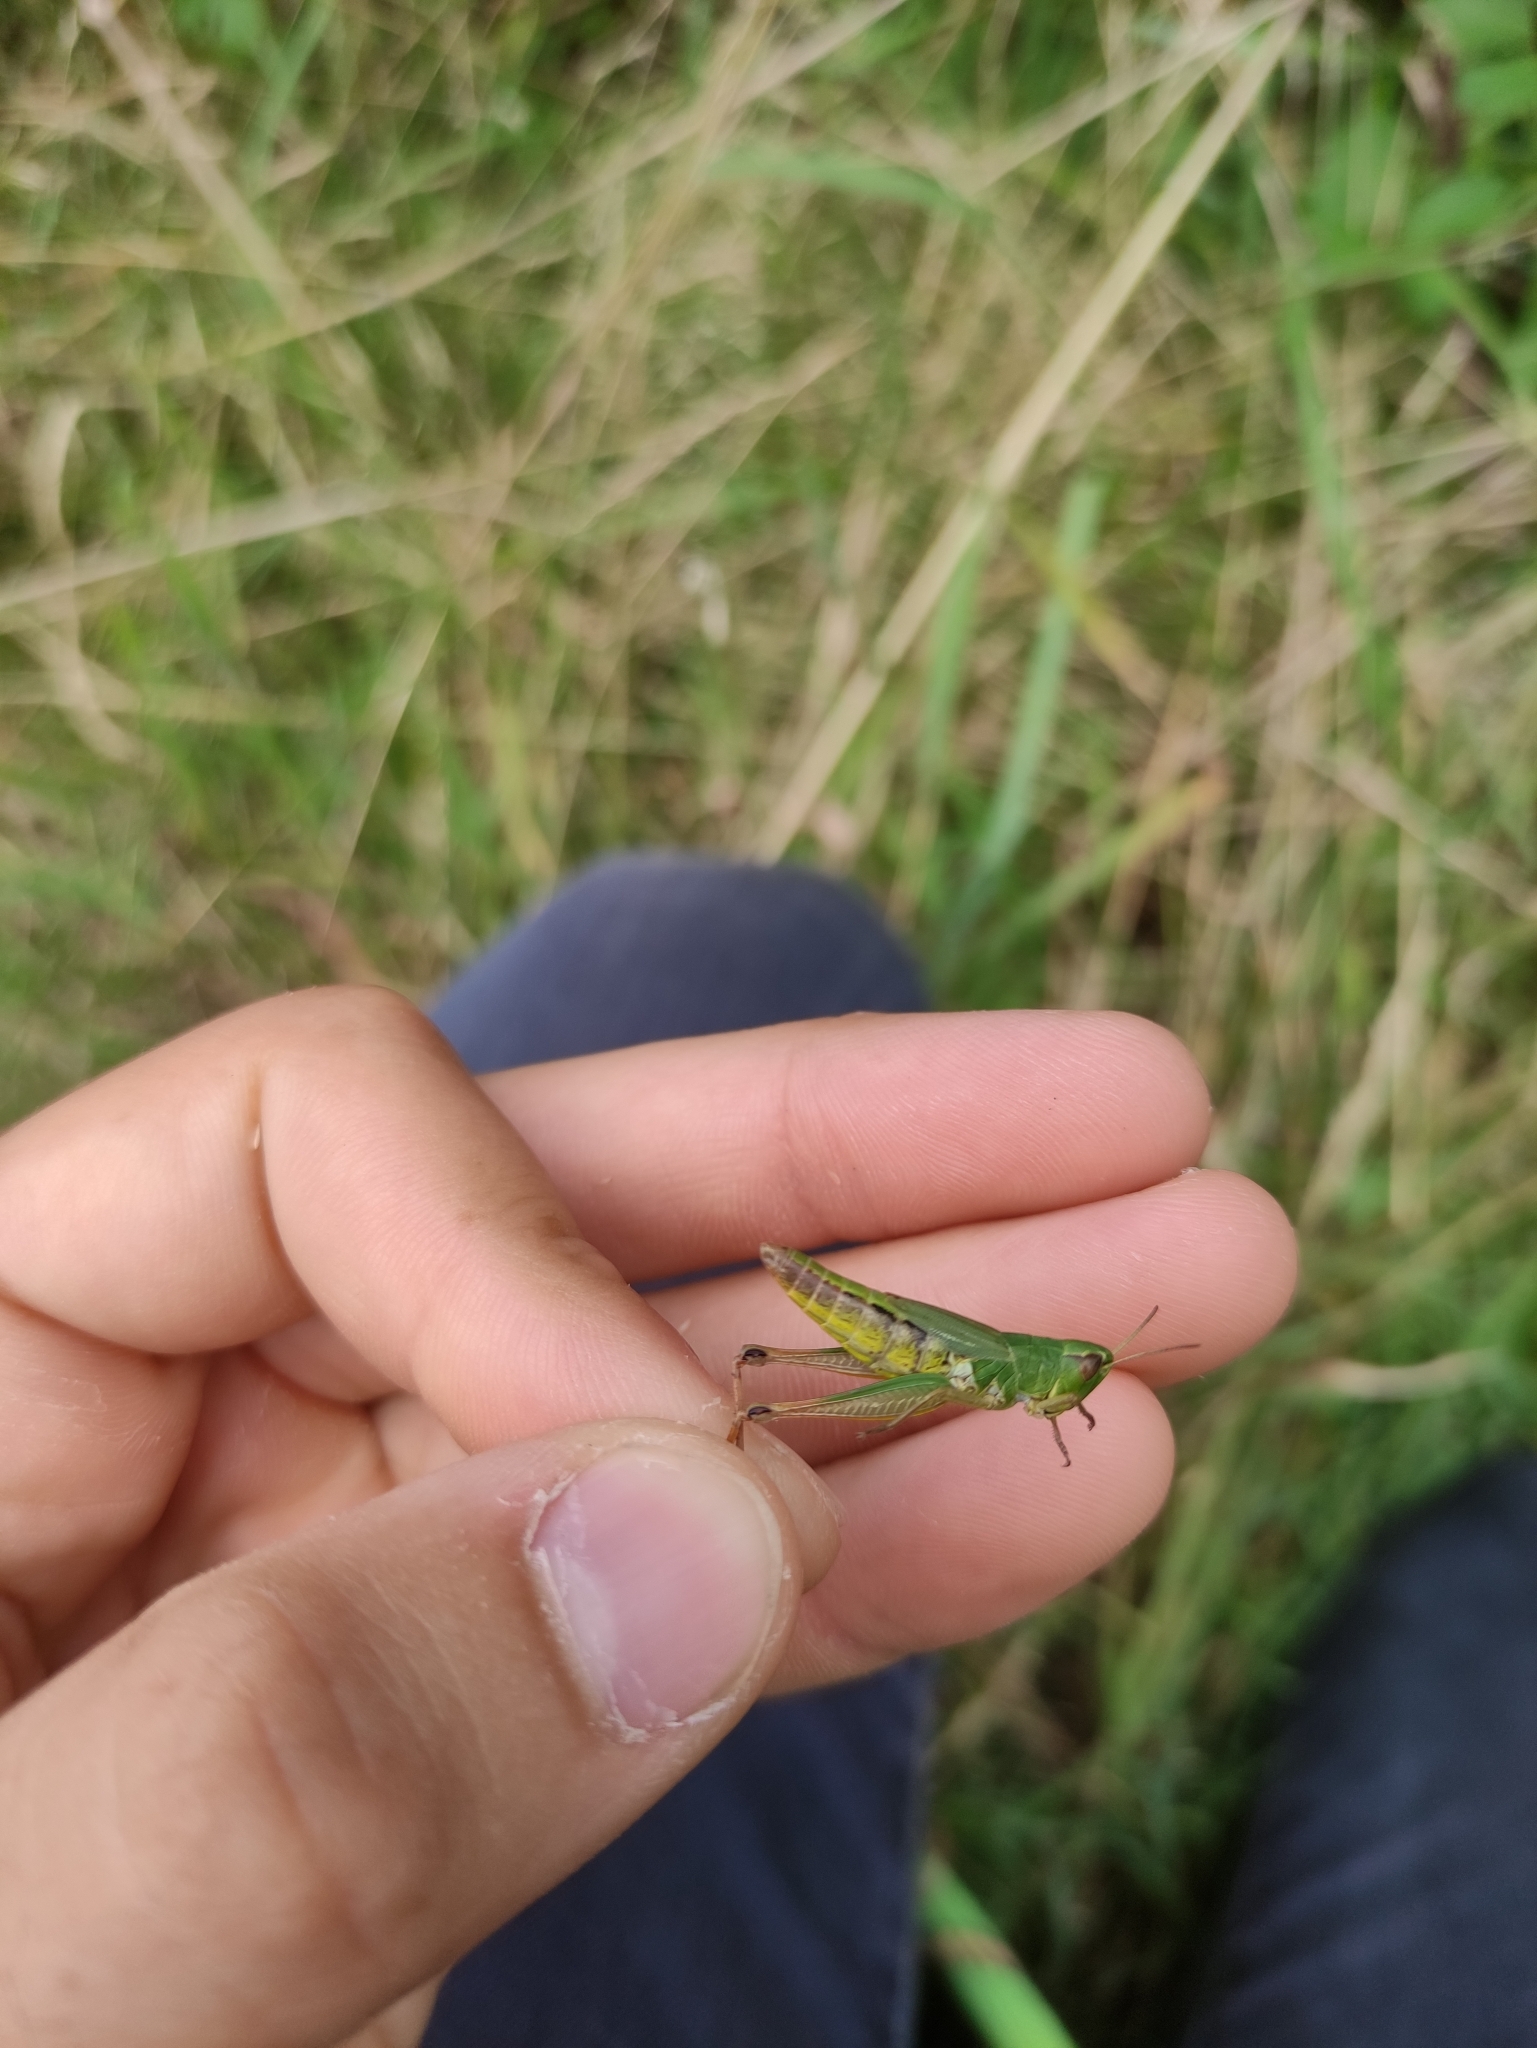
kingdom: Animalia
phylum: Arthropoda
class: Insecta
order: Orthoptera
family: Acrididae
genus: Pseudochorthippus
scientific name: Pseudochorthippus parallelus
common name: Meadow grasshopper
